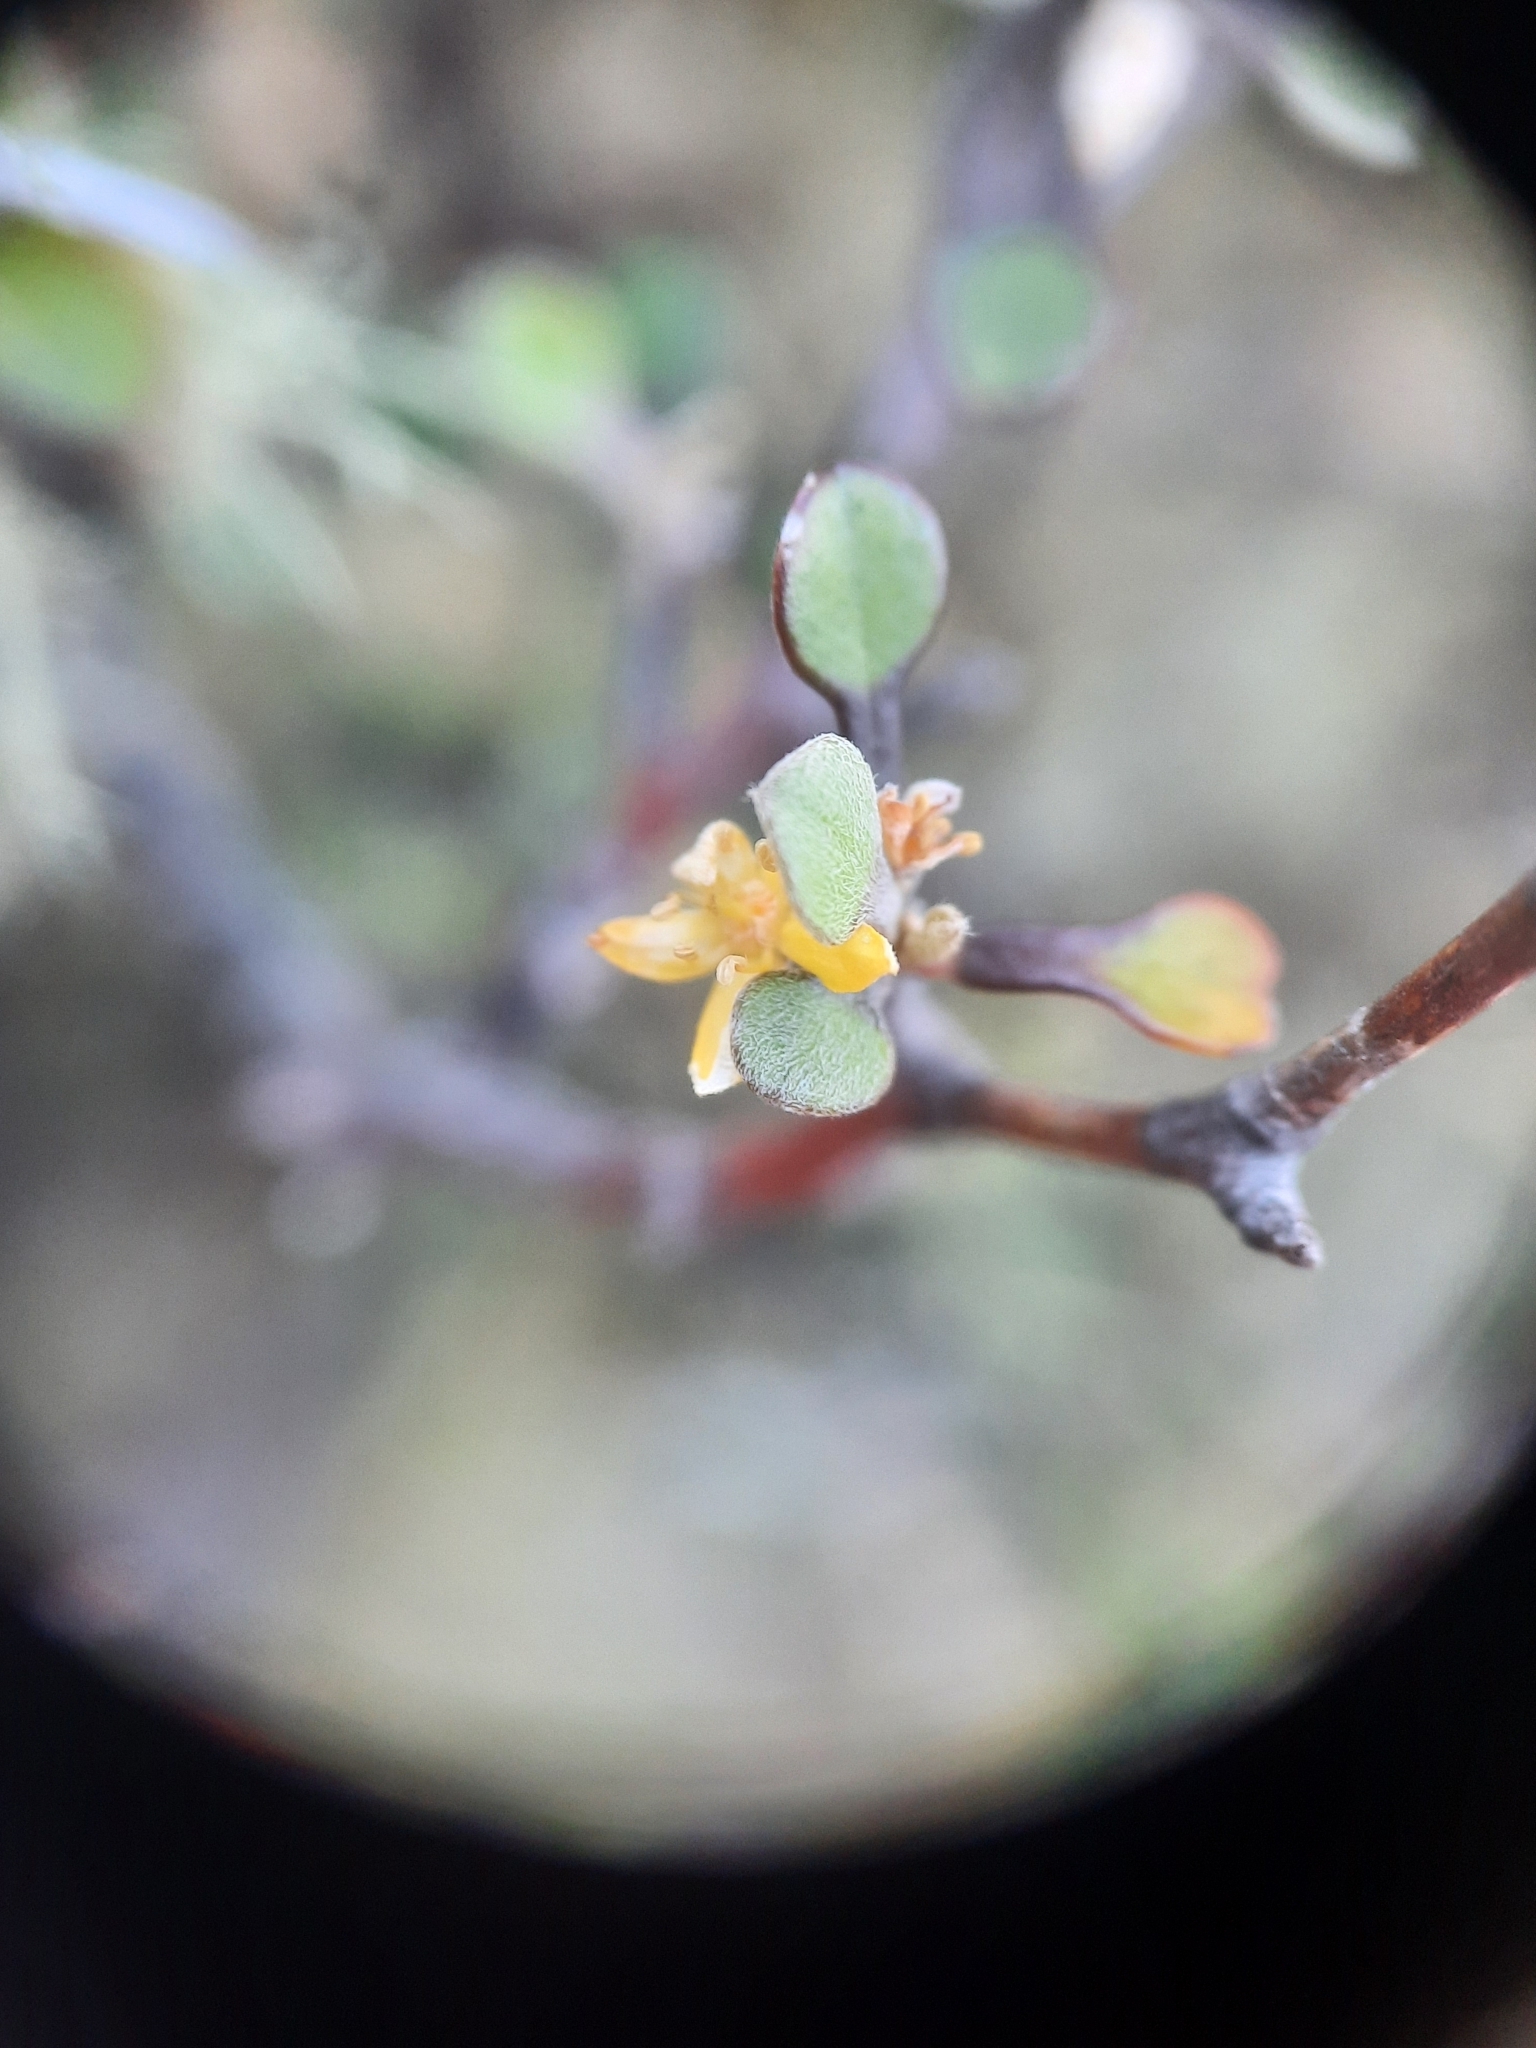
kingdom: Plantae
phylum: Tracheophyta
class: Magnoliopsida
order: Asterales
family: Argophyllaceae
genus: Corokia
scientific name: Corokia cotoneaster
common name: Wire nettingbush
